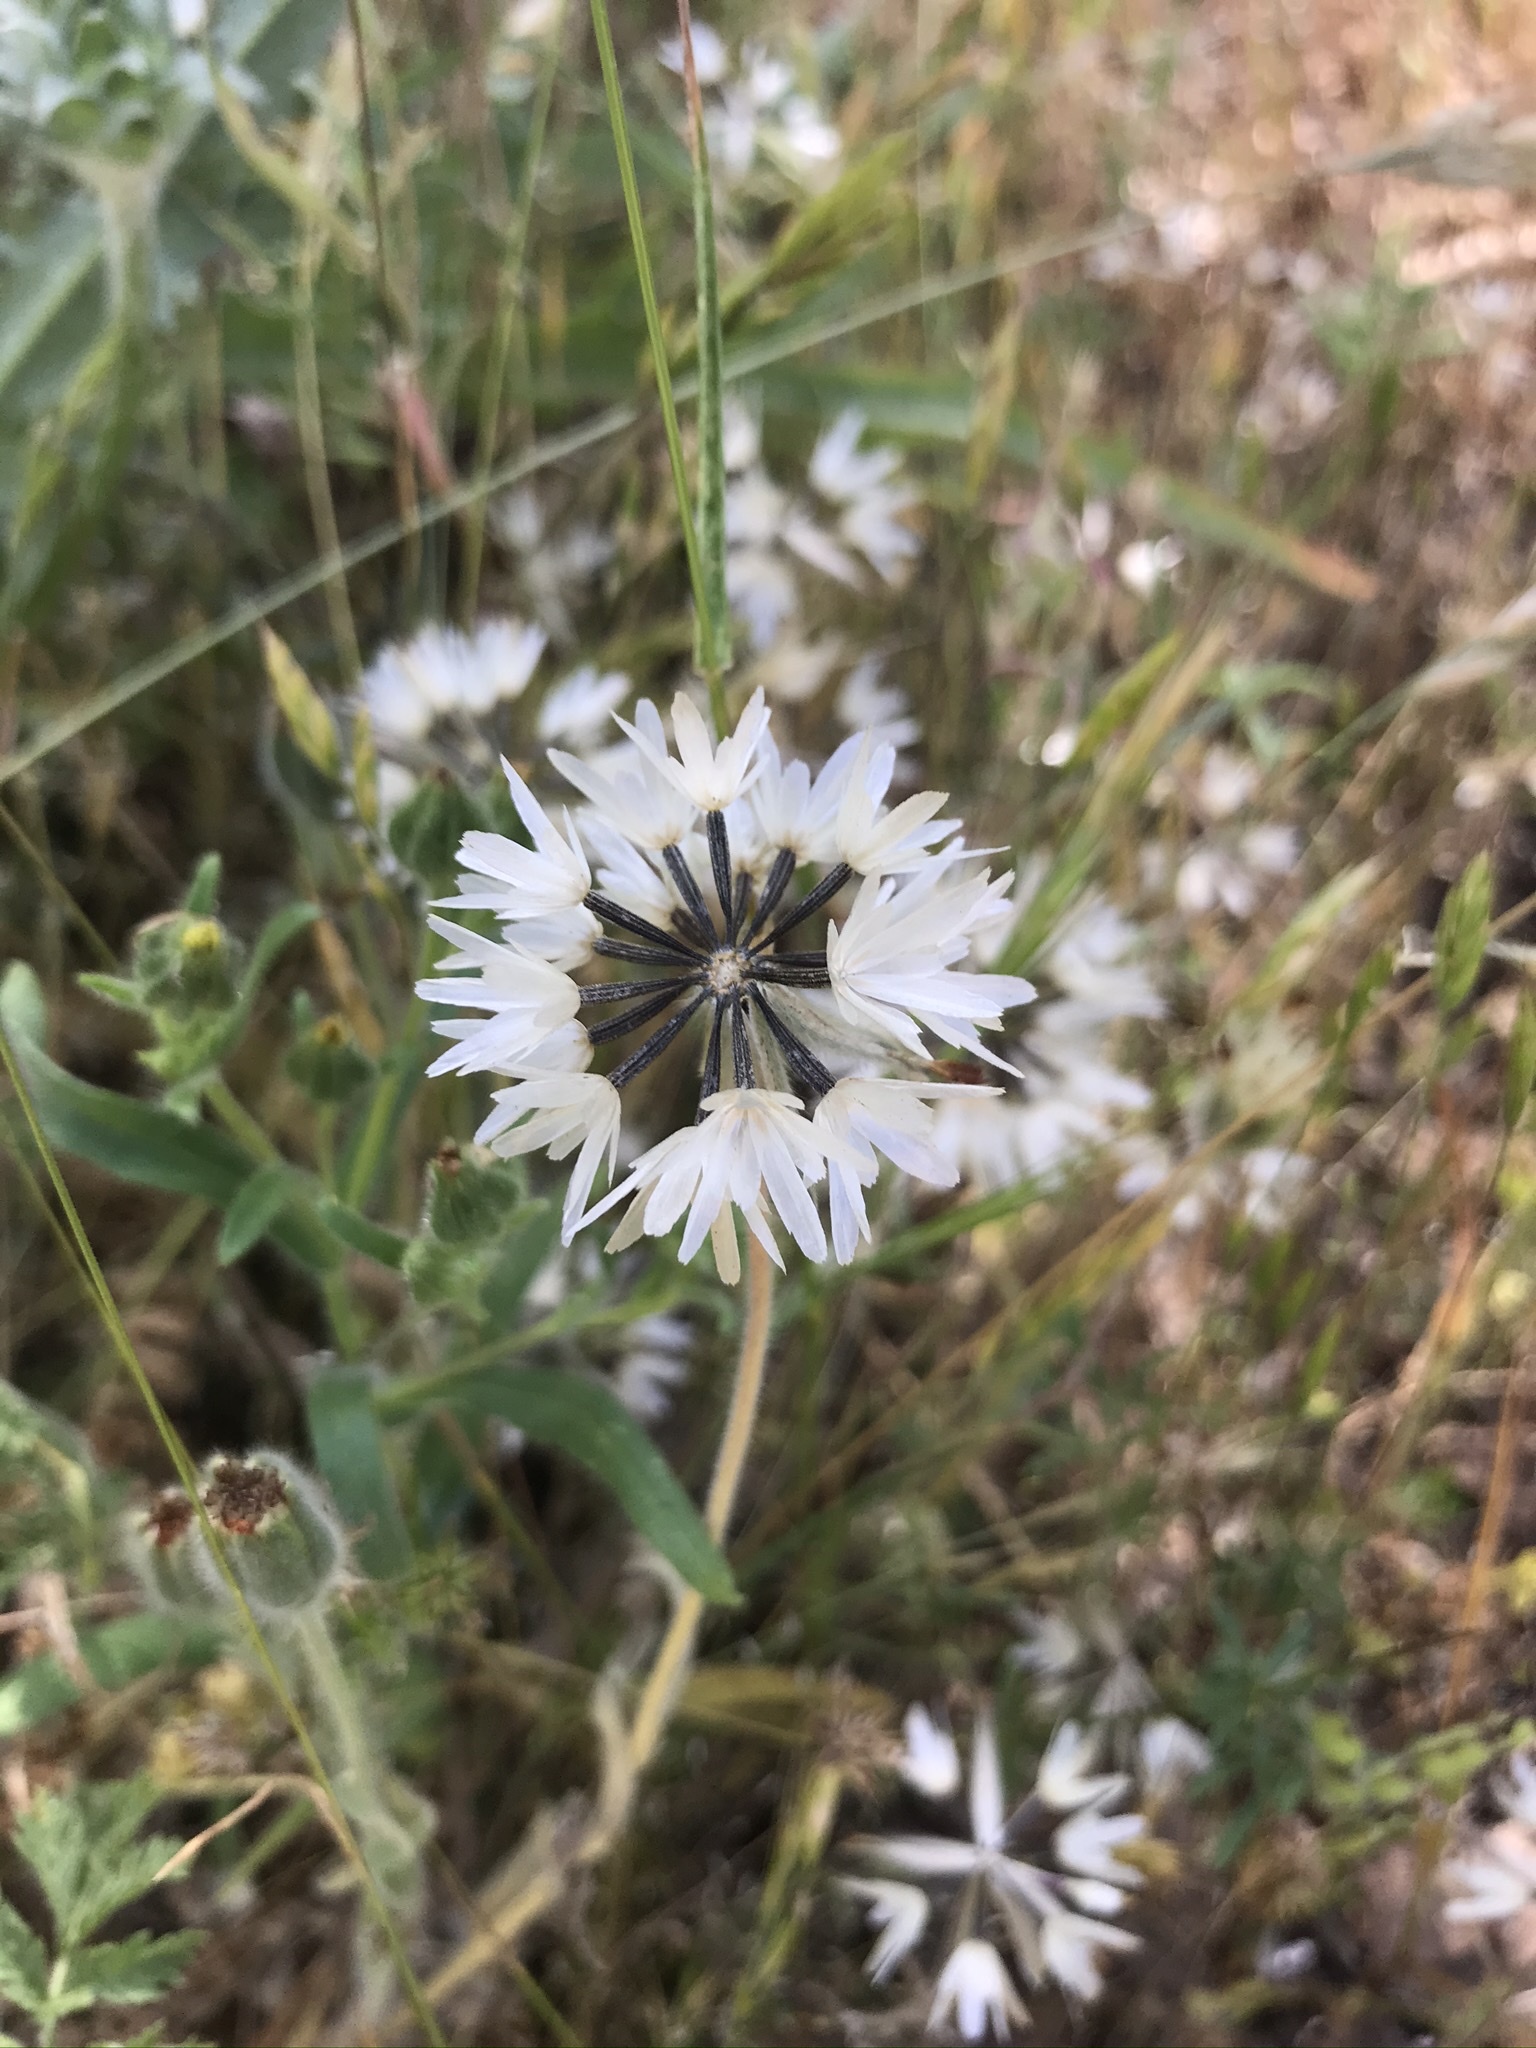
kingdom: Plantae
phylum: Tracheophyta
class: Magnoliopsida
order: Asterales
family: Asteraceae
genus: Achyrachaena
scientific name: Achyrachaena mollis
